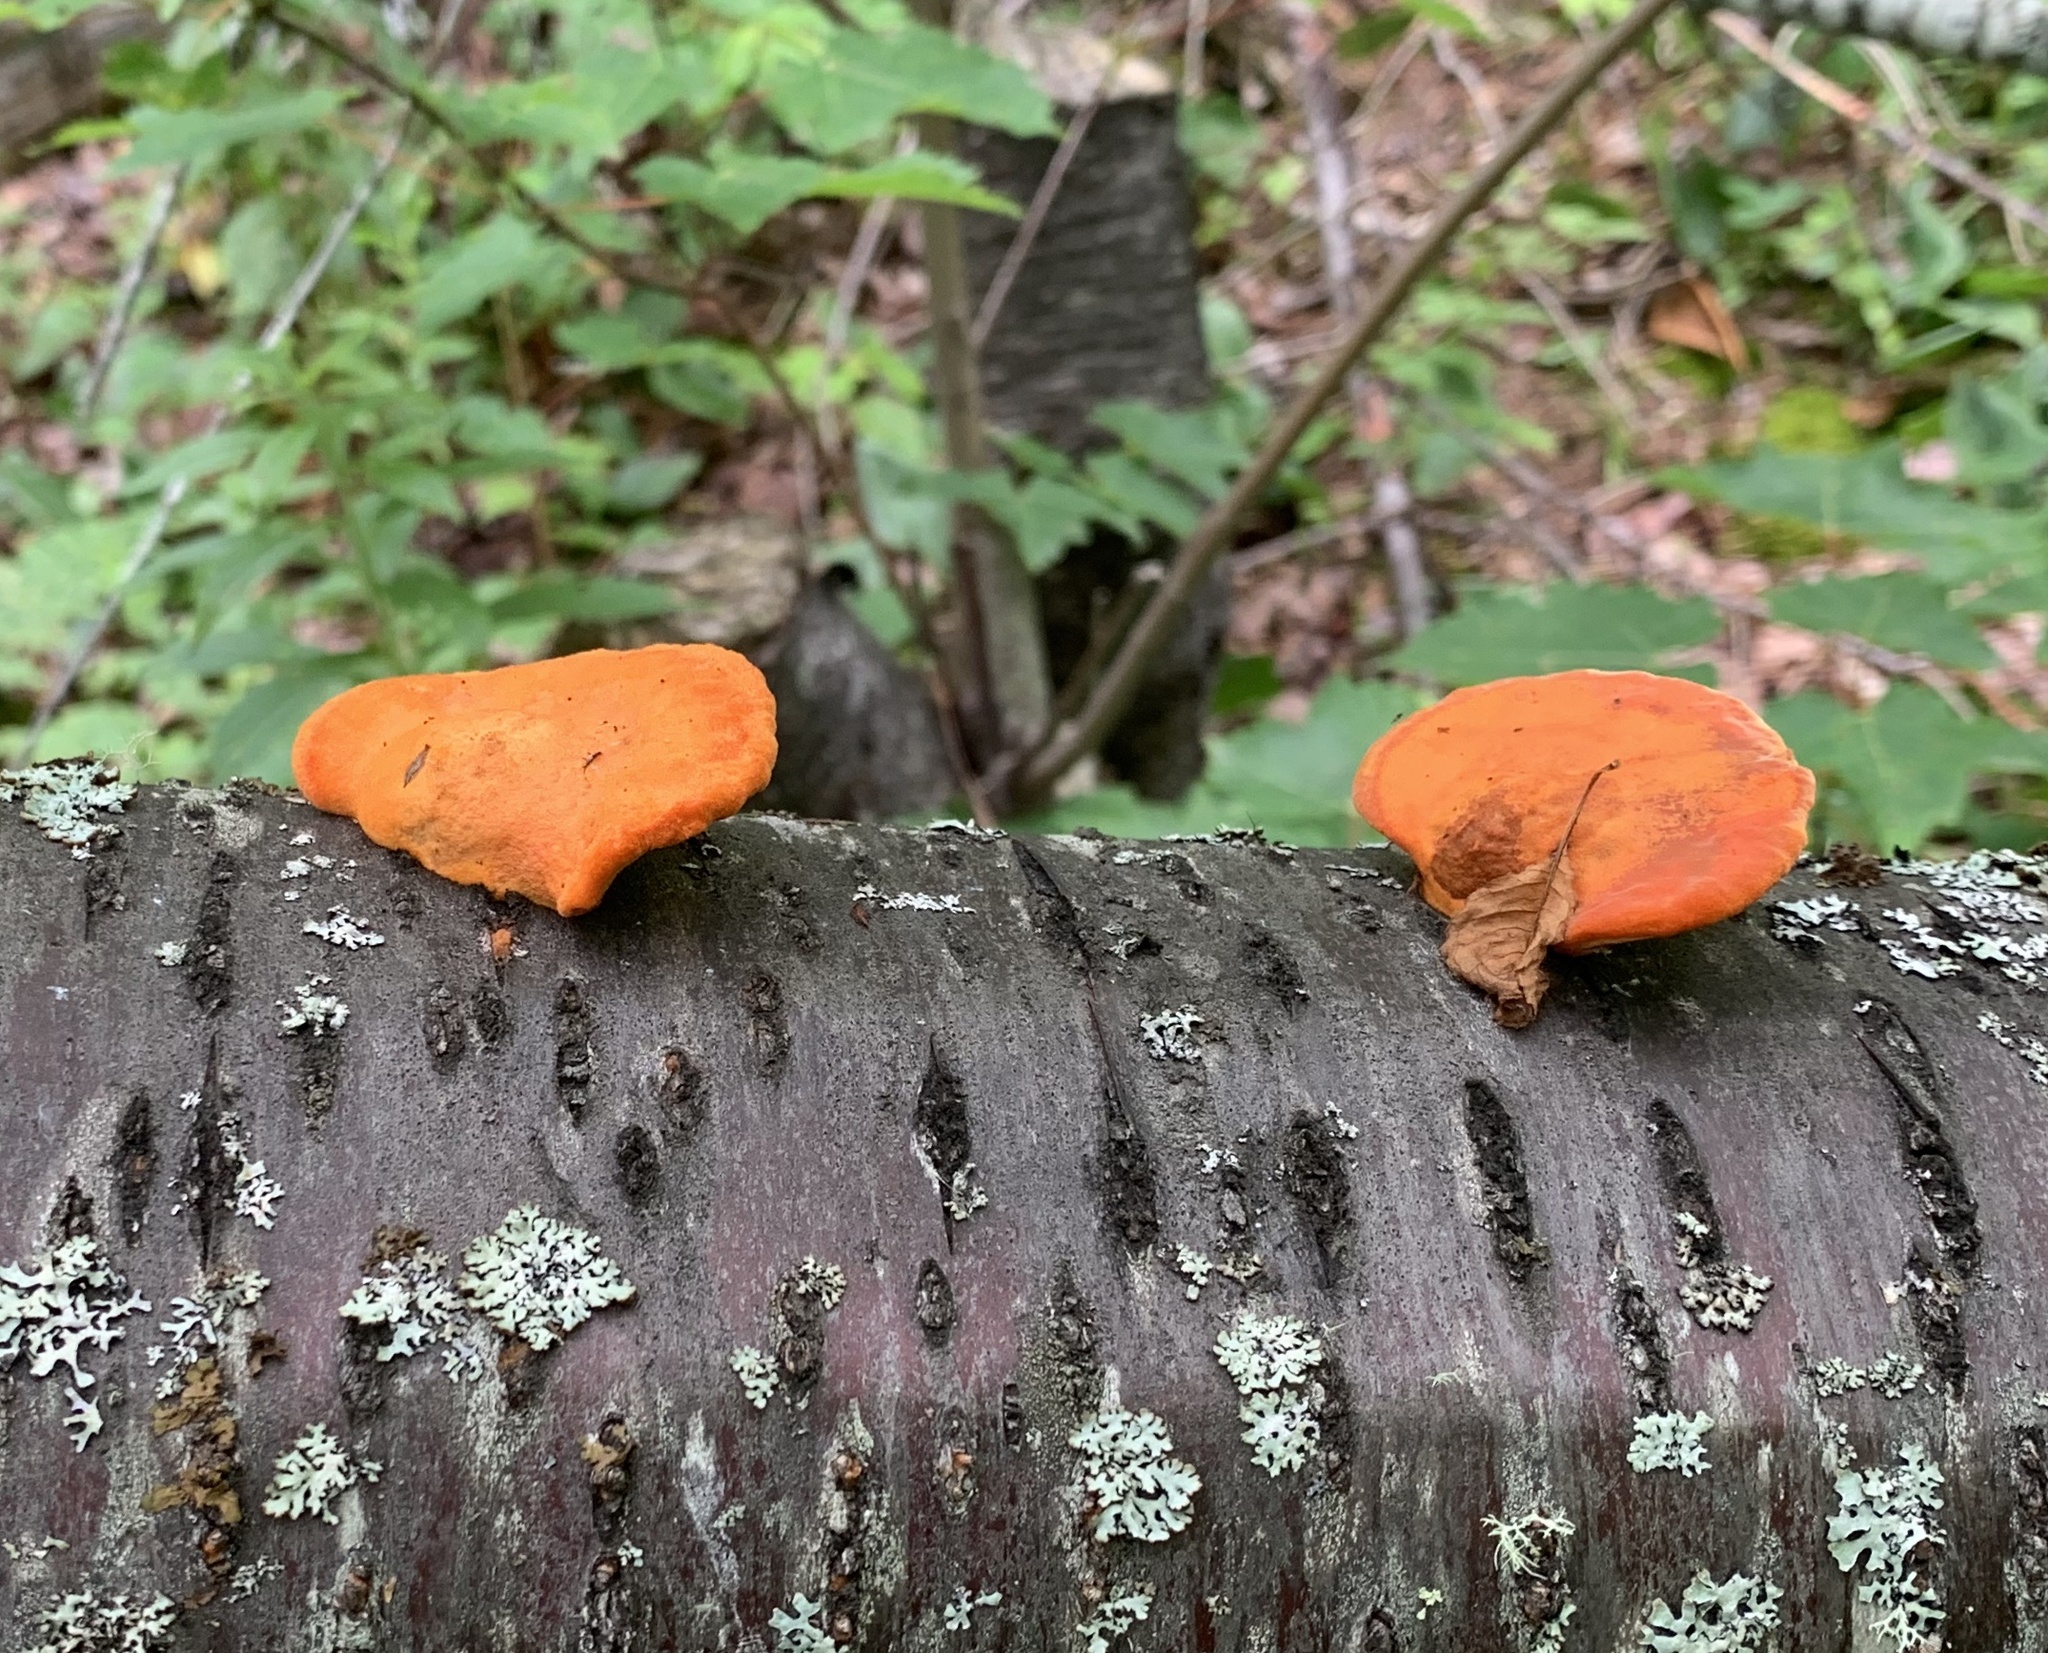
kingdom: Fungi
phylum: Basidiomycota
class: Agaricomycetes
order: Polyporales
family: Polyporaceae
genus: Trametes
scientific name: Trametes cinnabarina
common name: Northern cinnabar polypore
